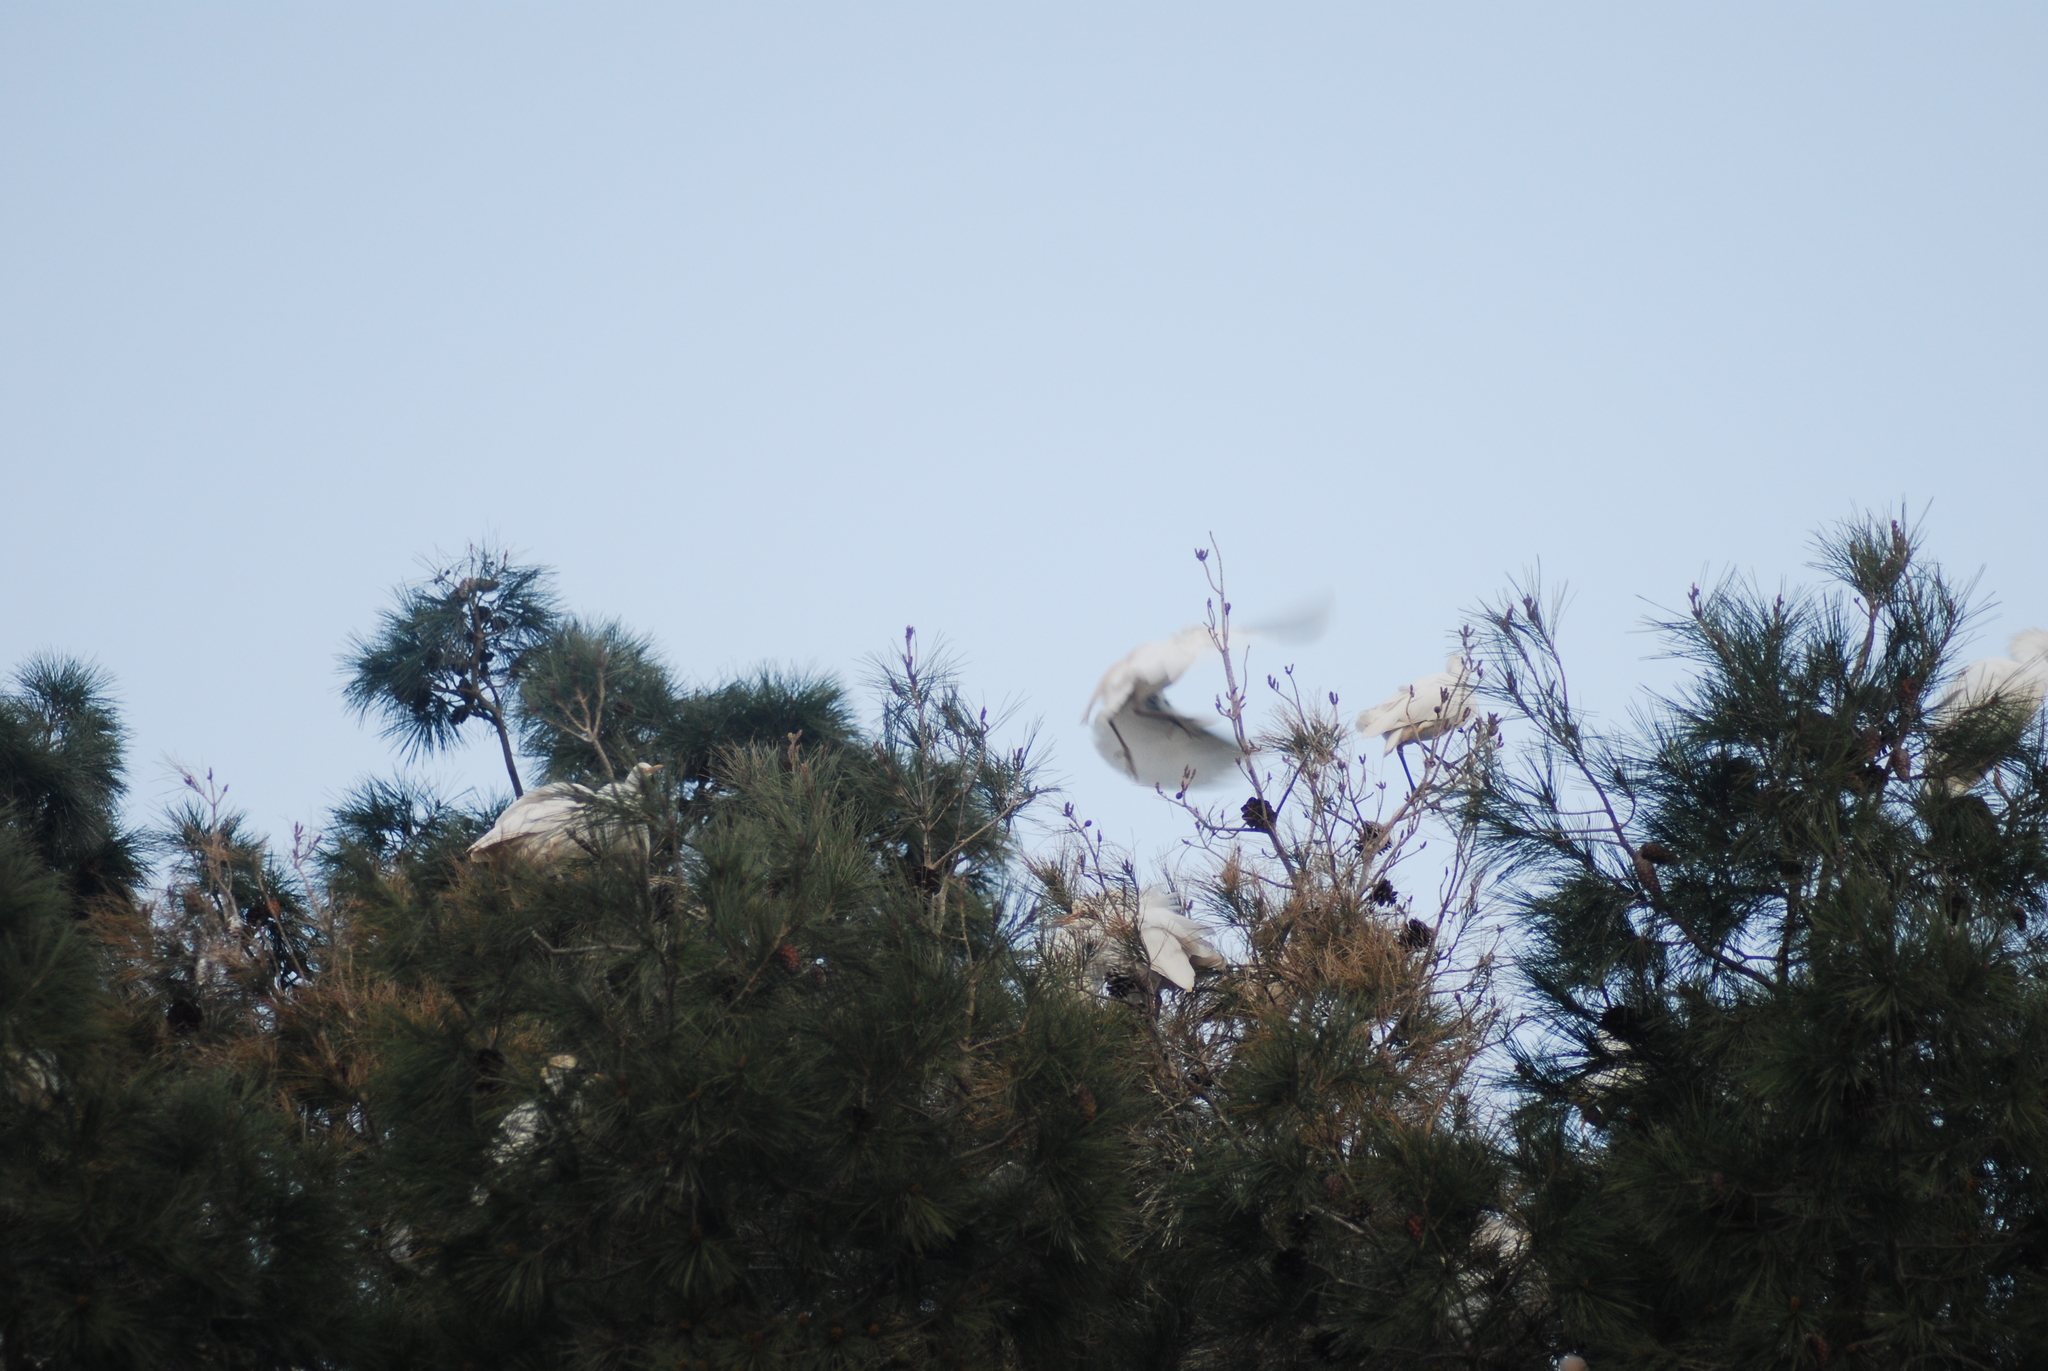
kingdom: Animalia
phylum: Chordata
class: Aves
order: Pelecaniformes
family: Ardeidae
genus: Bubulcus
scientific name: Bubulcus ibis
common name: Cattle egret
